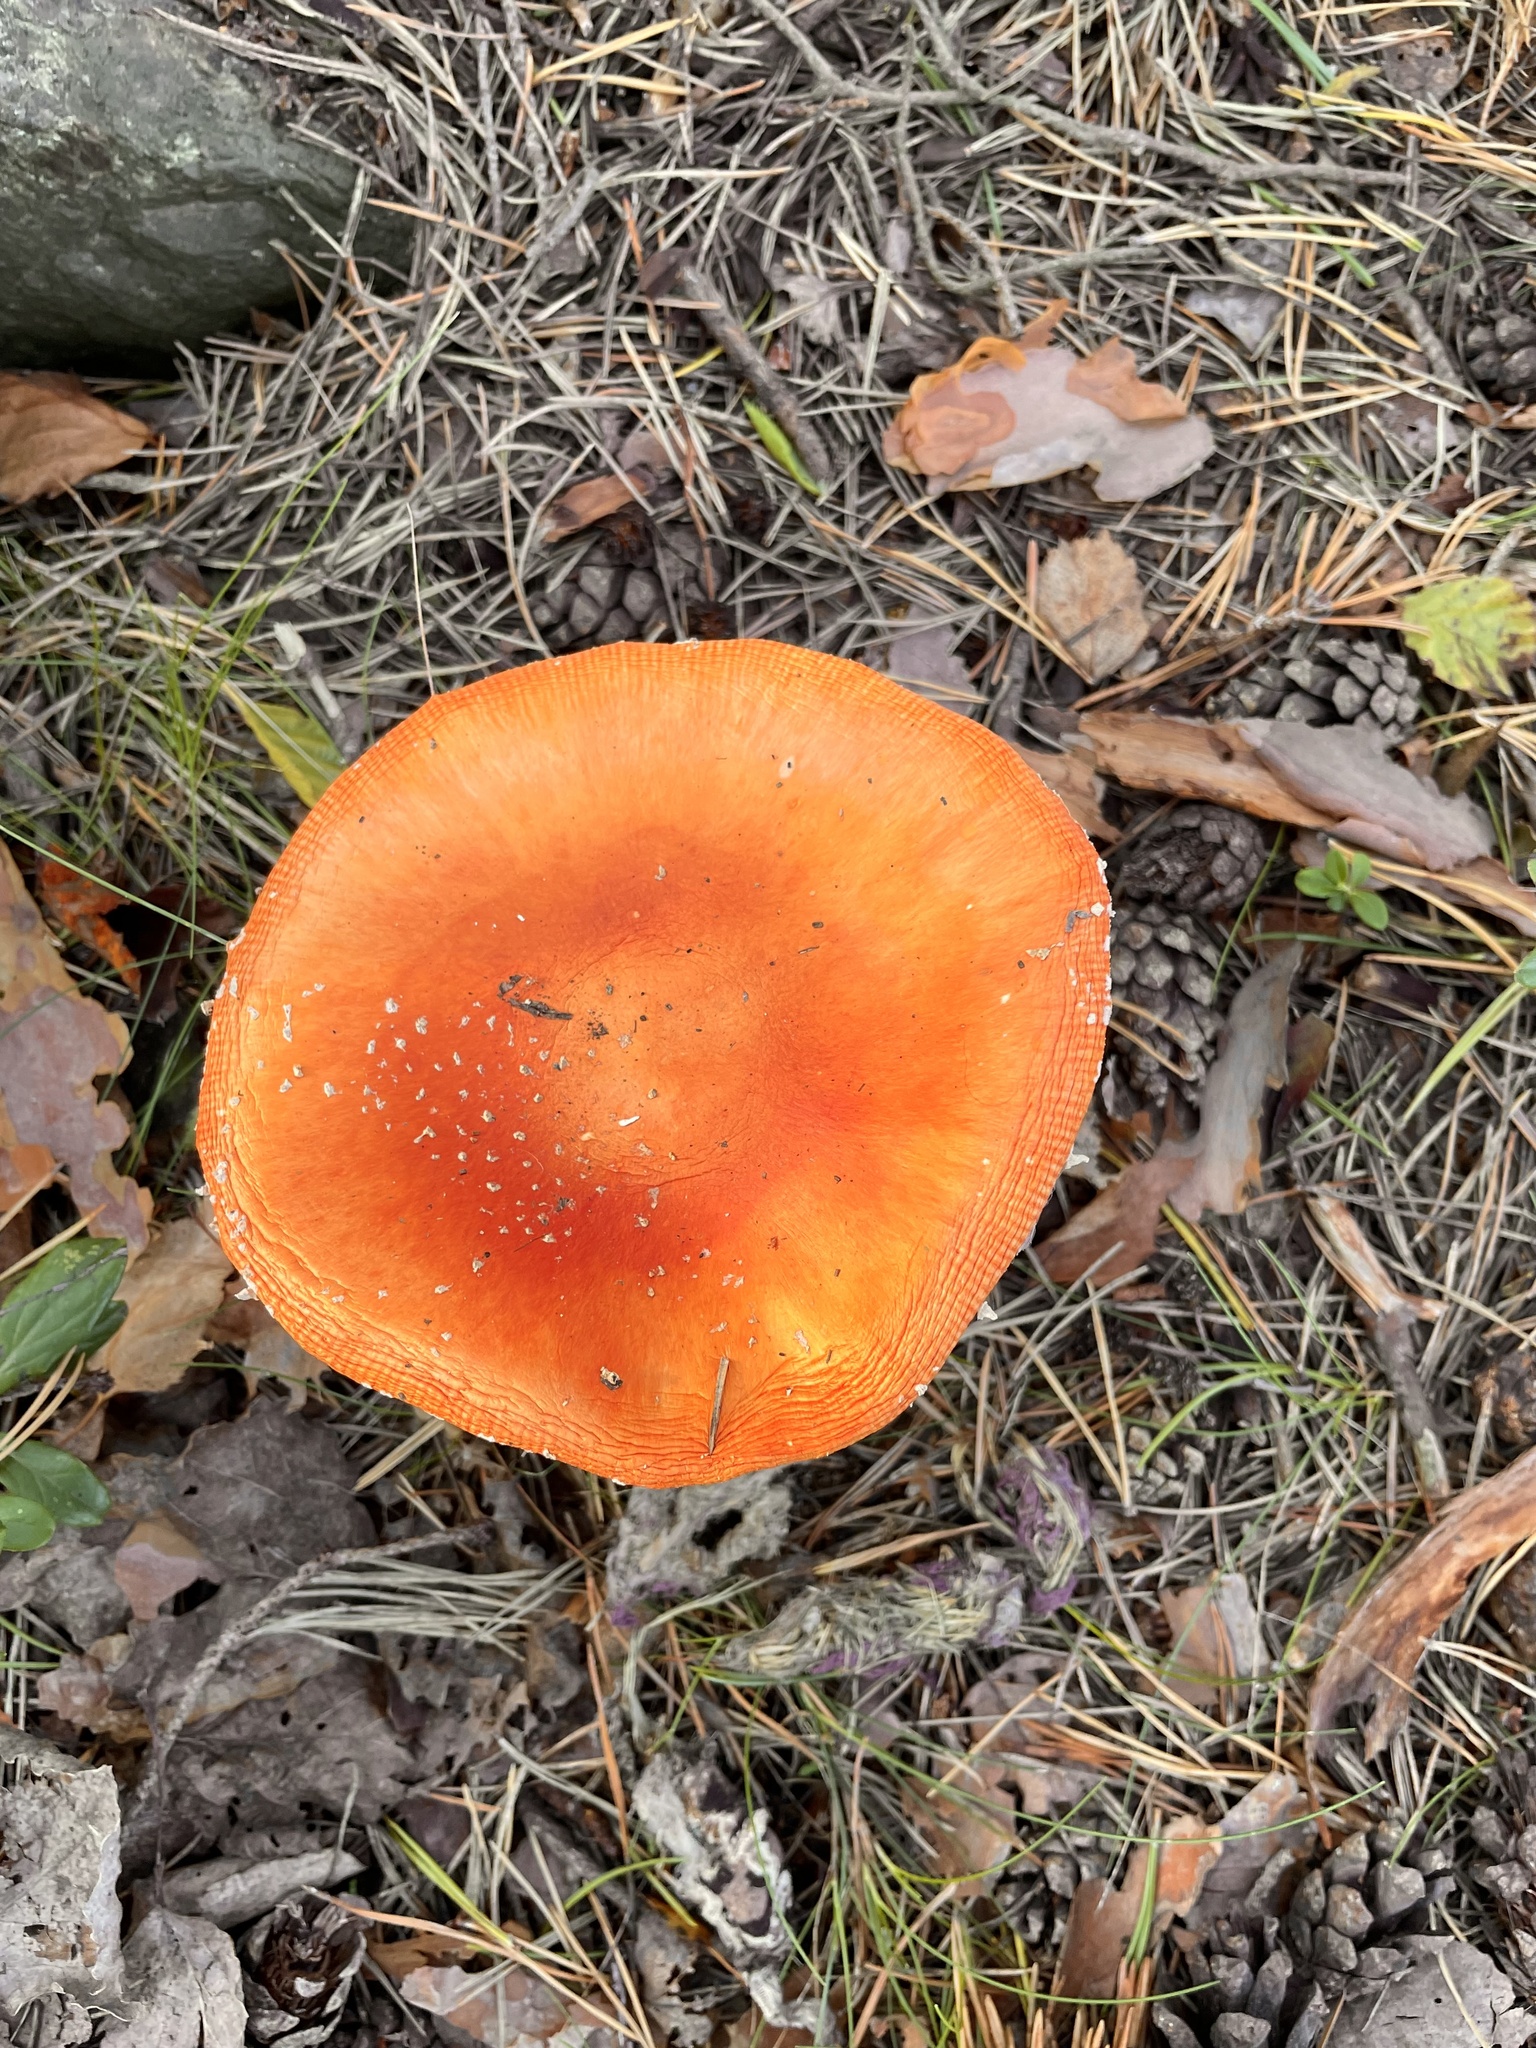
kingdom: Fungi
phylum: Basidiomycota
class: Agaricomycetes
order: Agaricales
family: Amanitaceae
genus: Amanita
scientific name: Amanita muscaria
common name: Fly agaric
